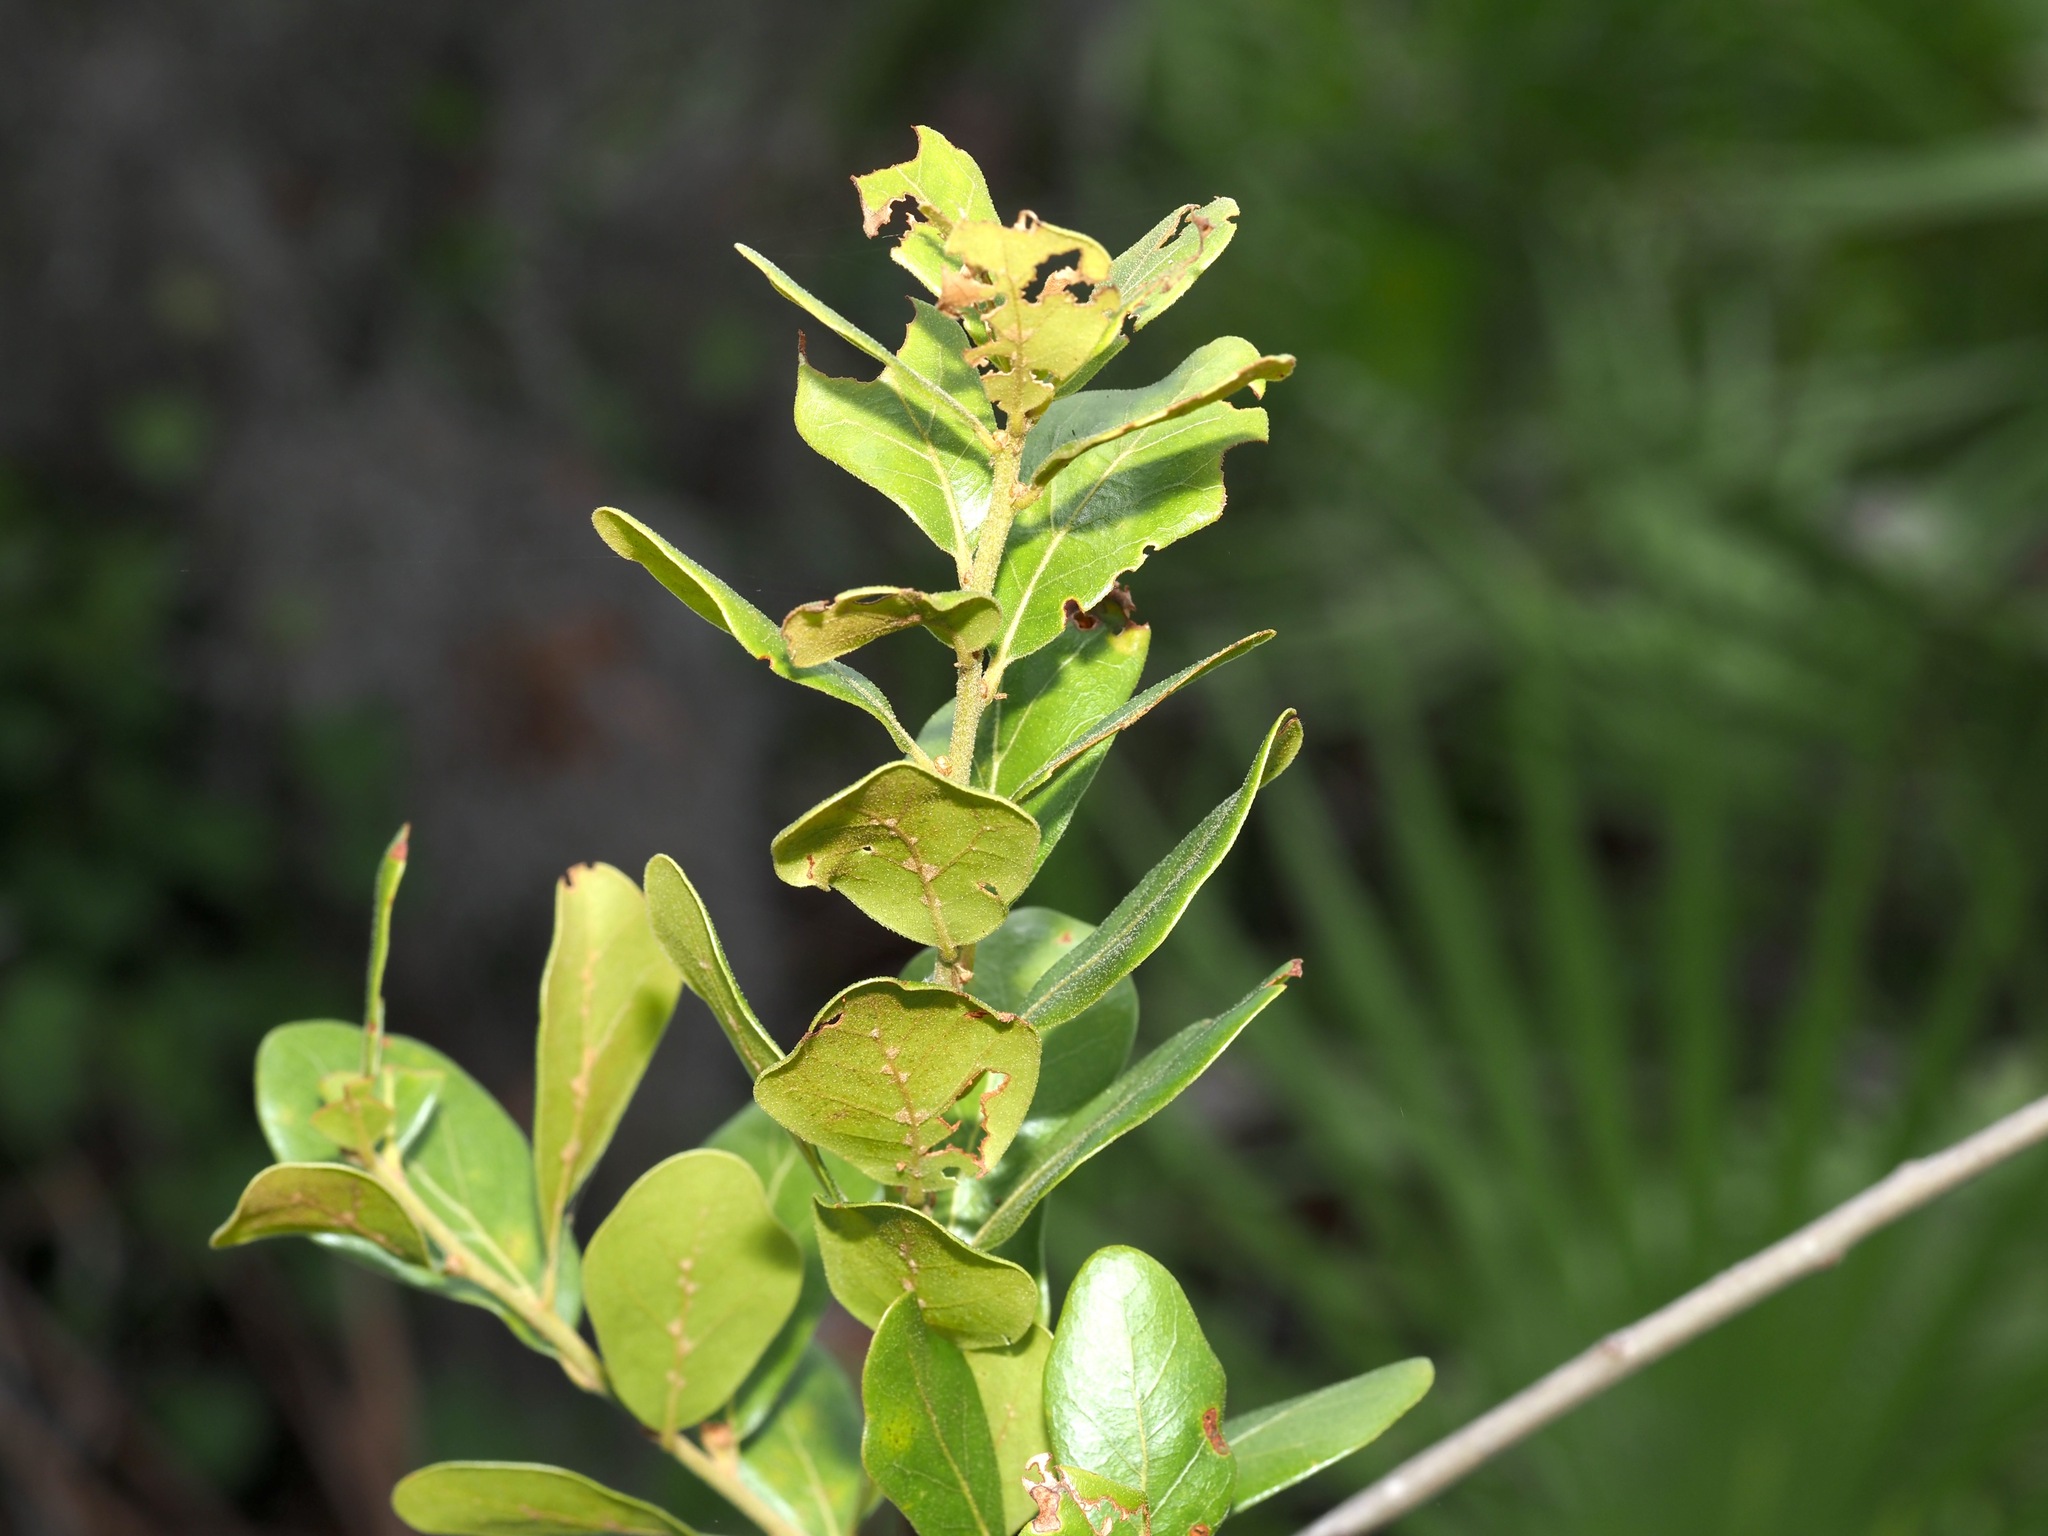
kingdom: Plantae
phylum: Tracheophyta
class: Magnoliopsida
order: Fagales
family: Fagaceae
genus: Quercus
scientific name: Quercus myrtifolia
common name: Myrtle oak
